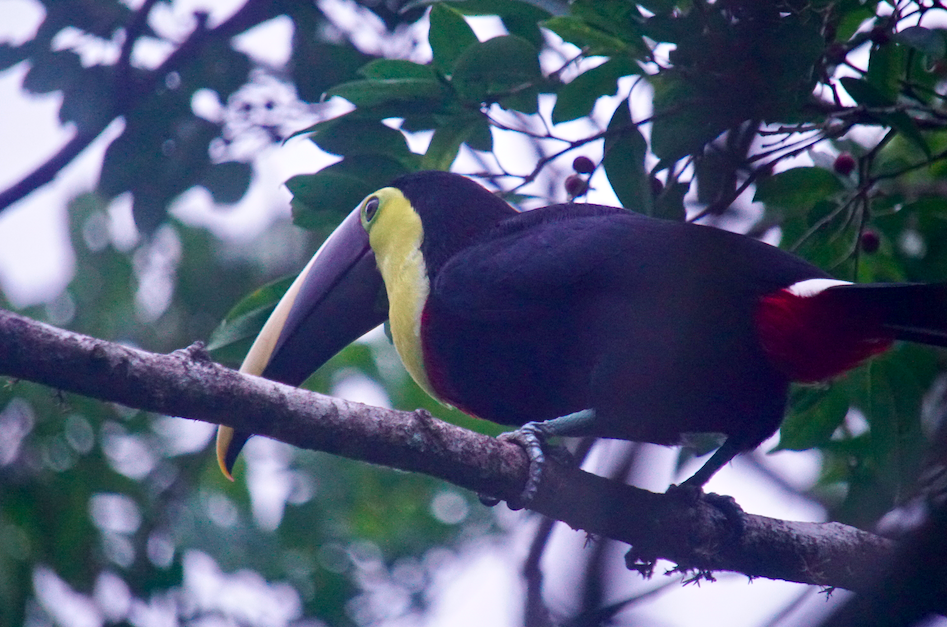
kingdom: Animalia
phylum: Chordata
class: Aves
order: Piciformes
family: Ramphastidae
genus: Ramphastos
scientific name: Ramphastos ambiguus
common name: Yellow-throated toucan
